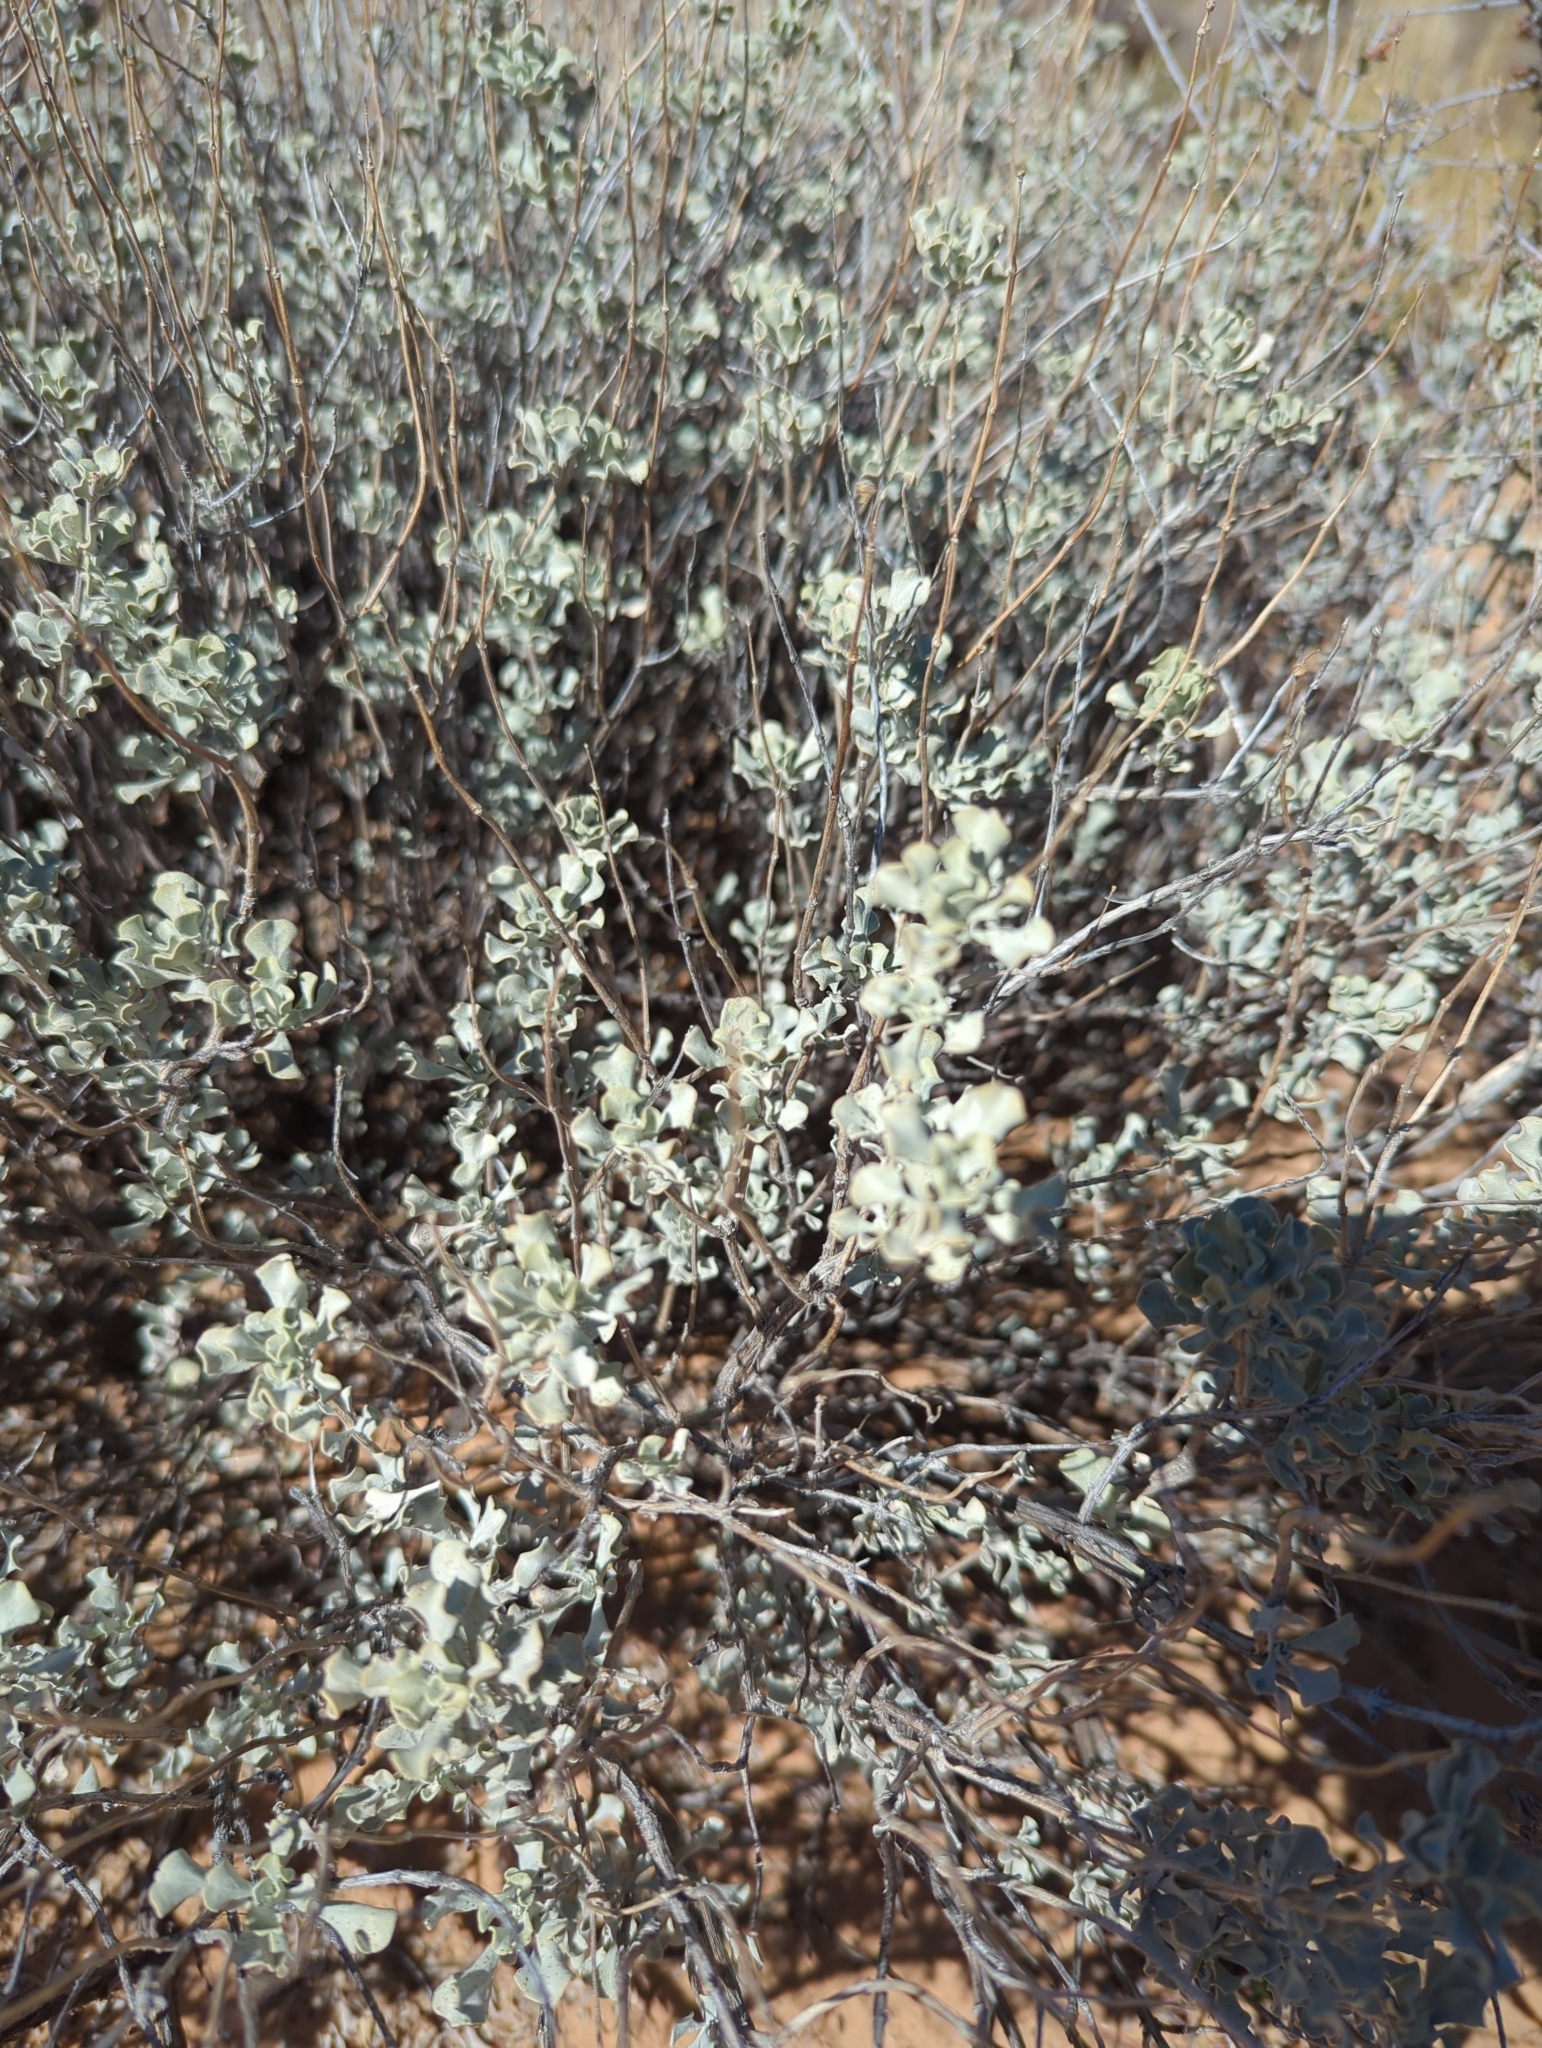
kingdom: Plantae
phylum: Tracheophyta
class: Magnoliopsida
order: Lamiales
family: Lamiaceae
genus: Salvia
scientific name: Salvia dorrii
